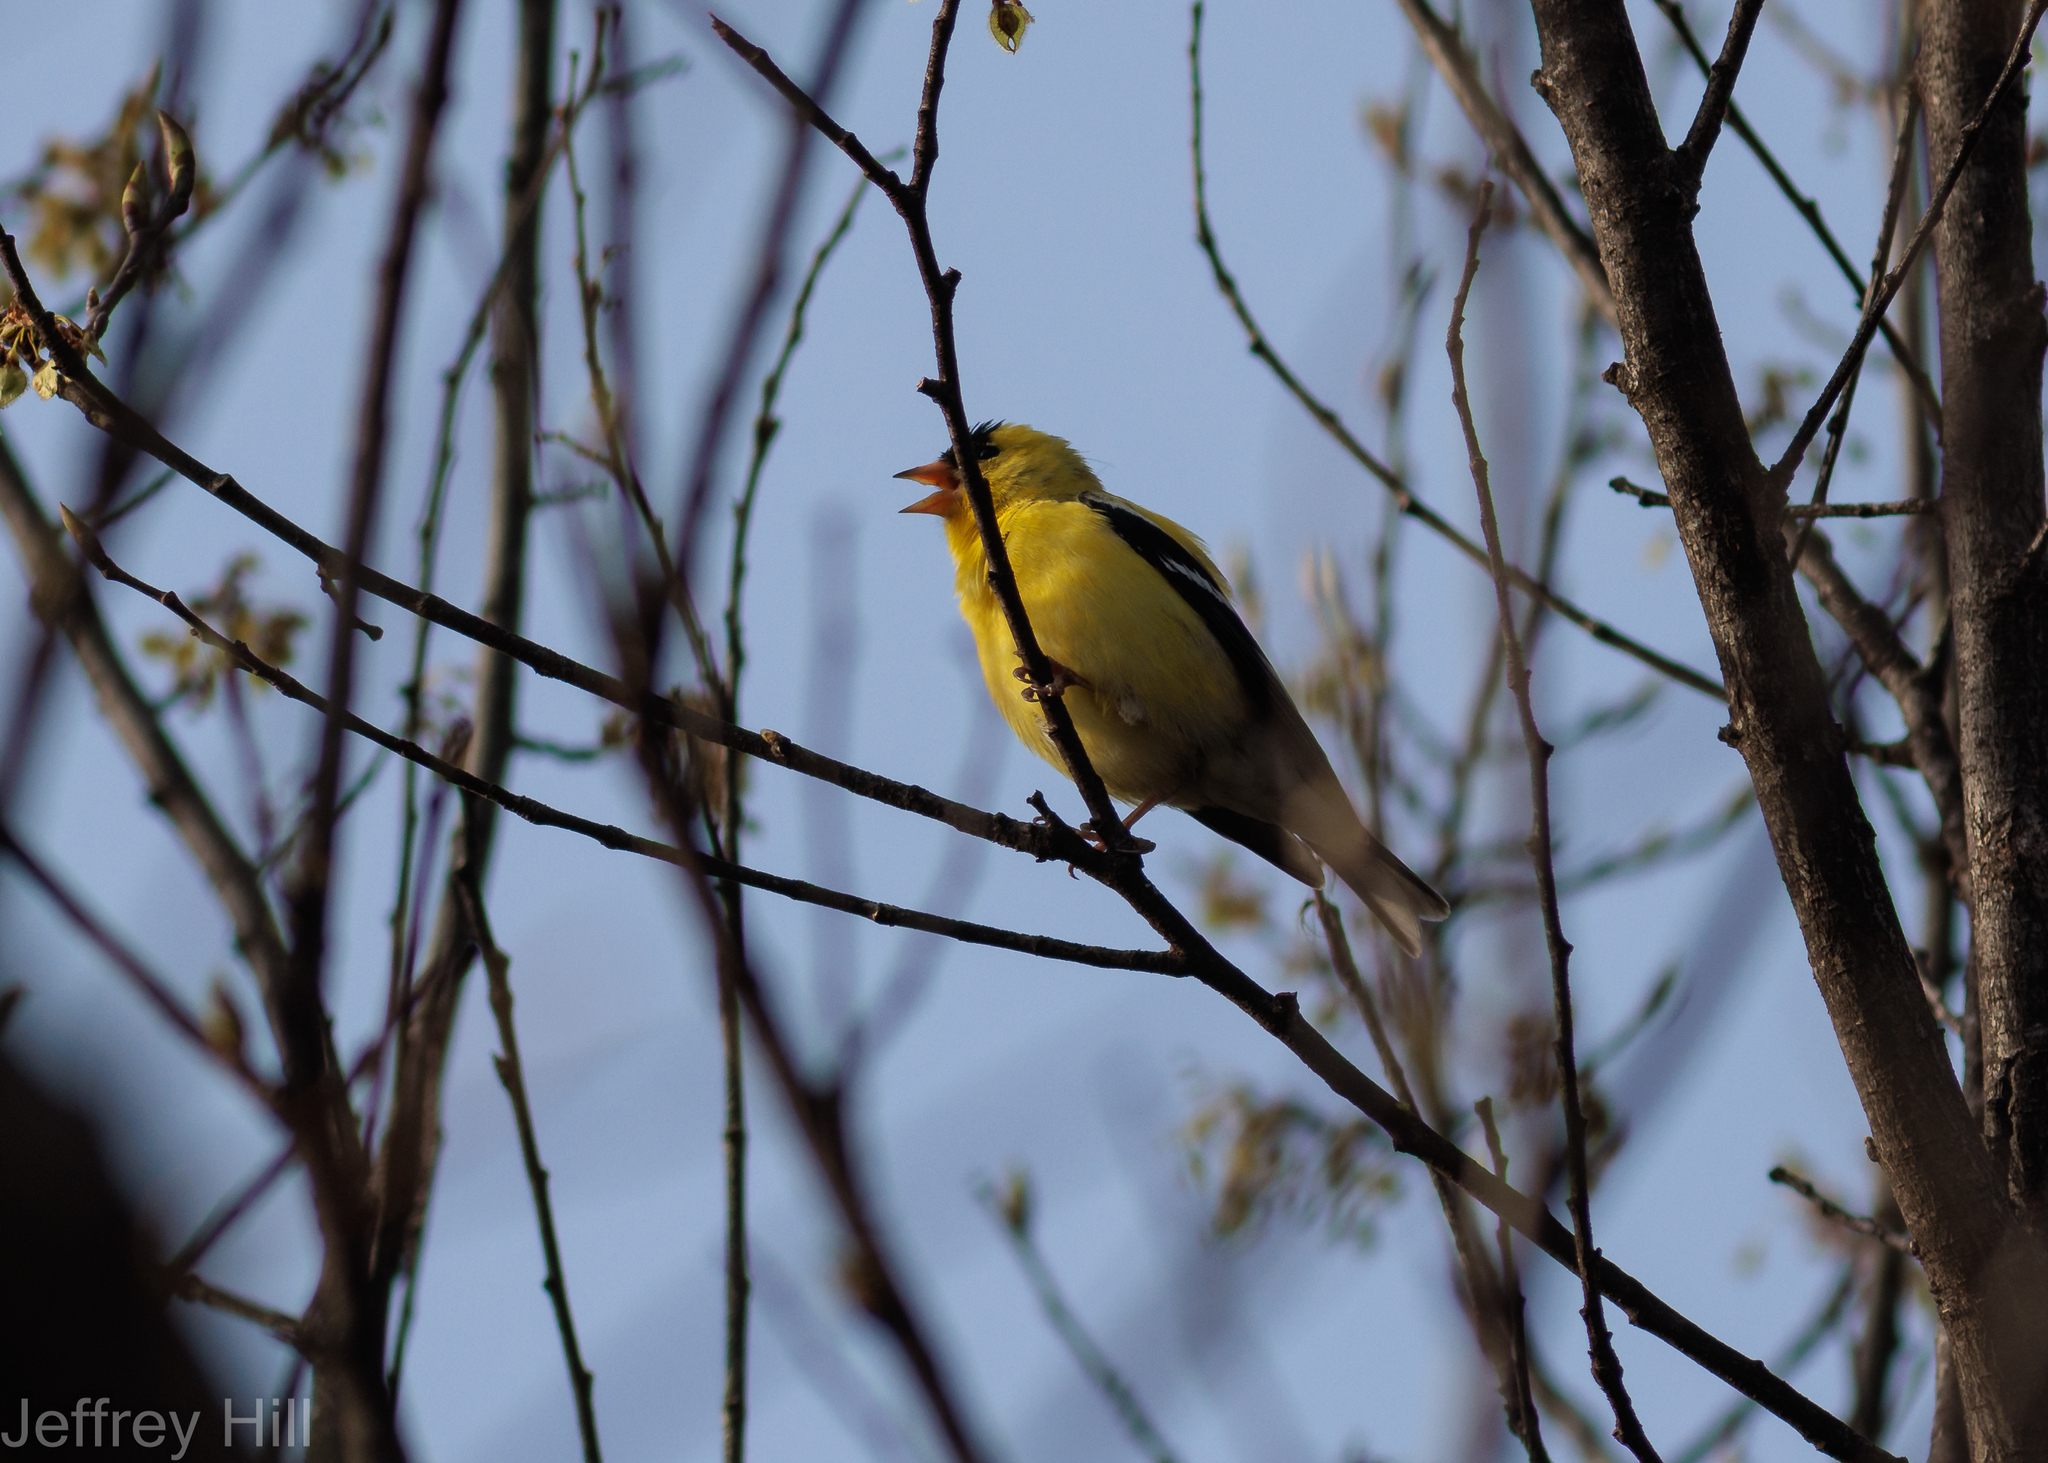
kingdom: Animalia
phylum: Chordata
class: Aves
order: Passeriformes
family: Fringillidae
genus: Spinus
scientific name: Spinus tristis
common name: American goldfinch
